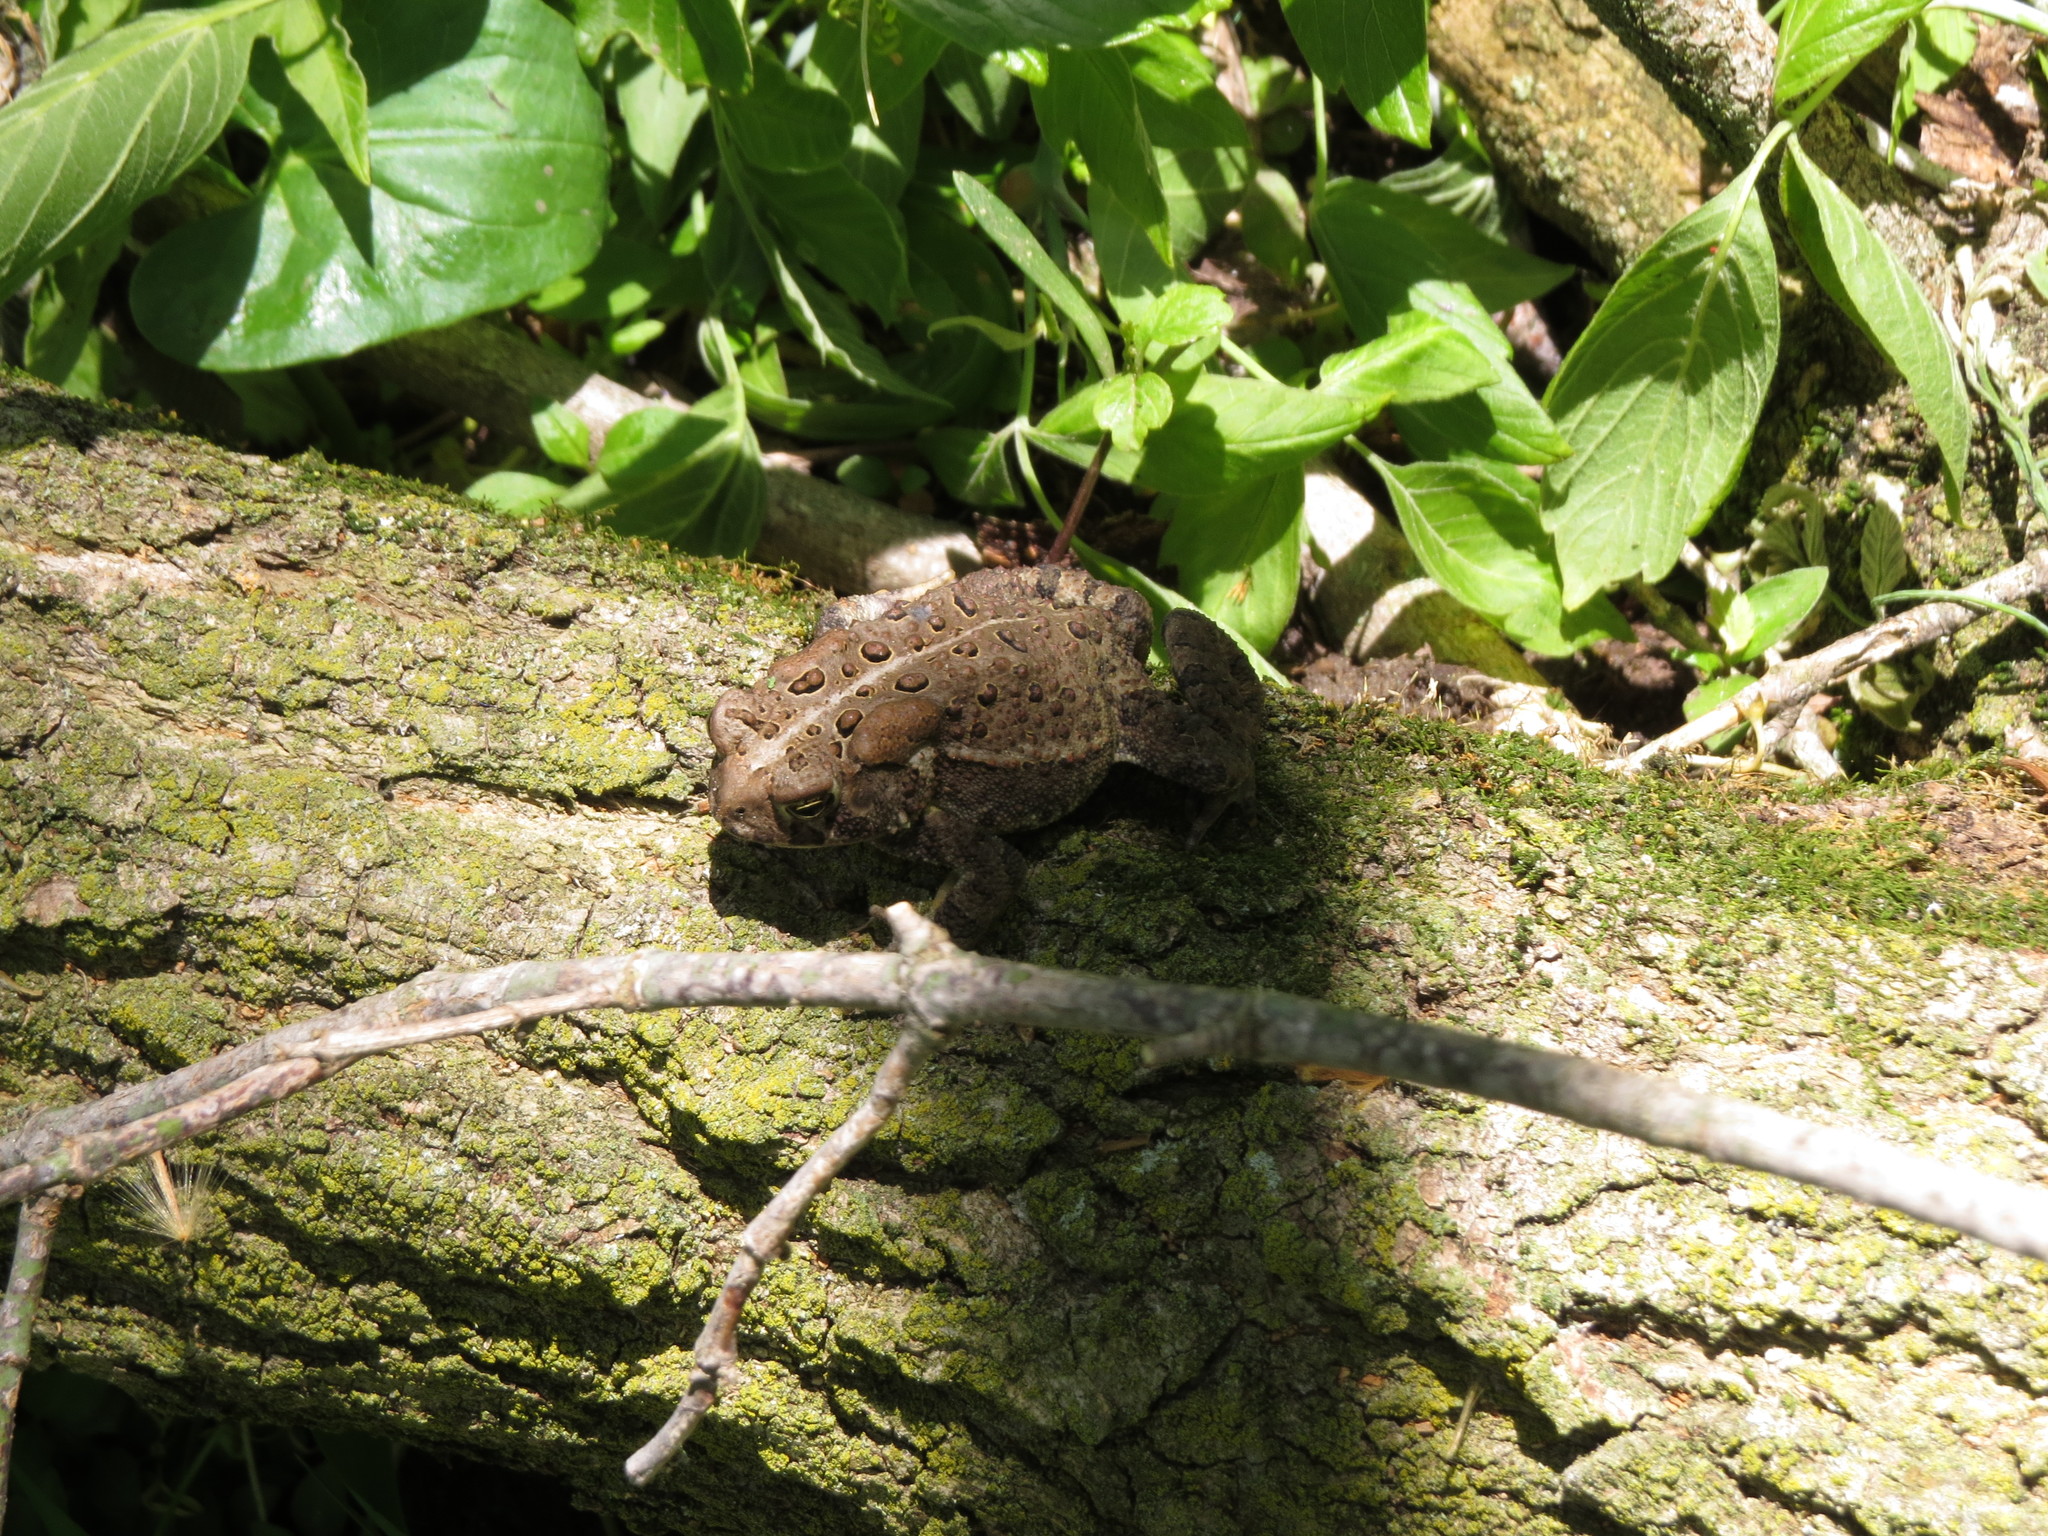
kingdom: Animalia
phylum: Chordata
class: Amphibia
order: Anura
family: Bufonidae
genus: Anaxyrus
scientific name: Anaxyrus americanus
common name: American toad
